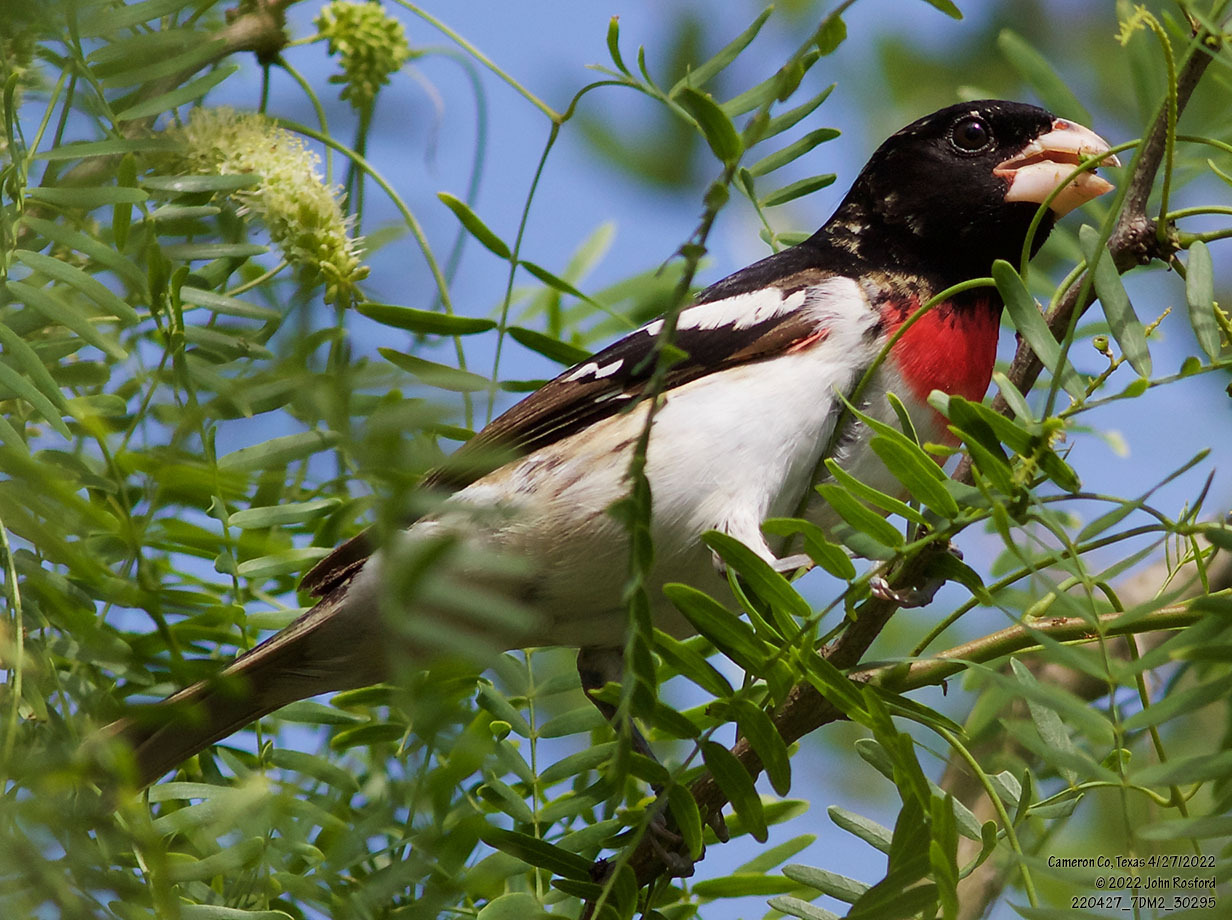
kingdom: Animalia
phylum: Chordata
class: Aves
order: Passeriformes
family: Cardinalidae
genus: Pheucticus
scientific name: Pheucticus ludovicianus
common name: Rose-breasted grosbeak
